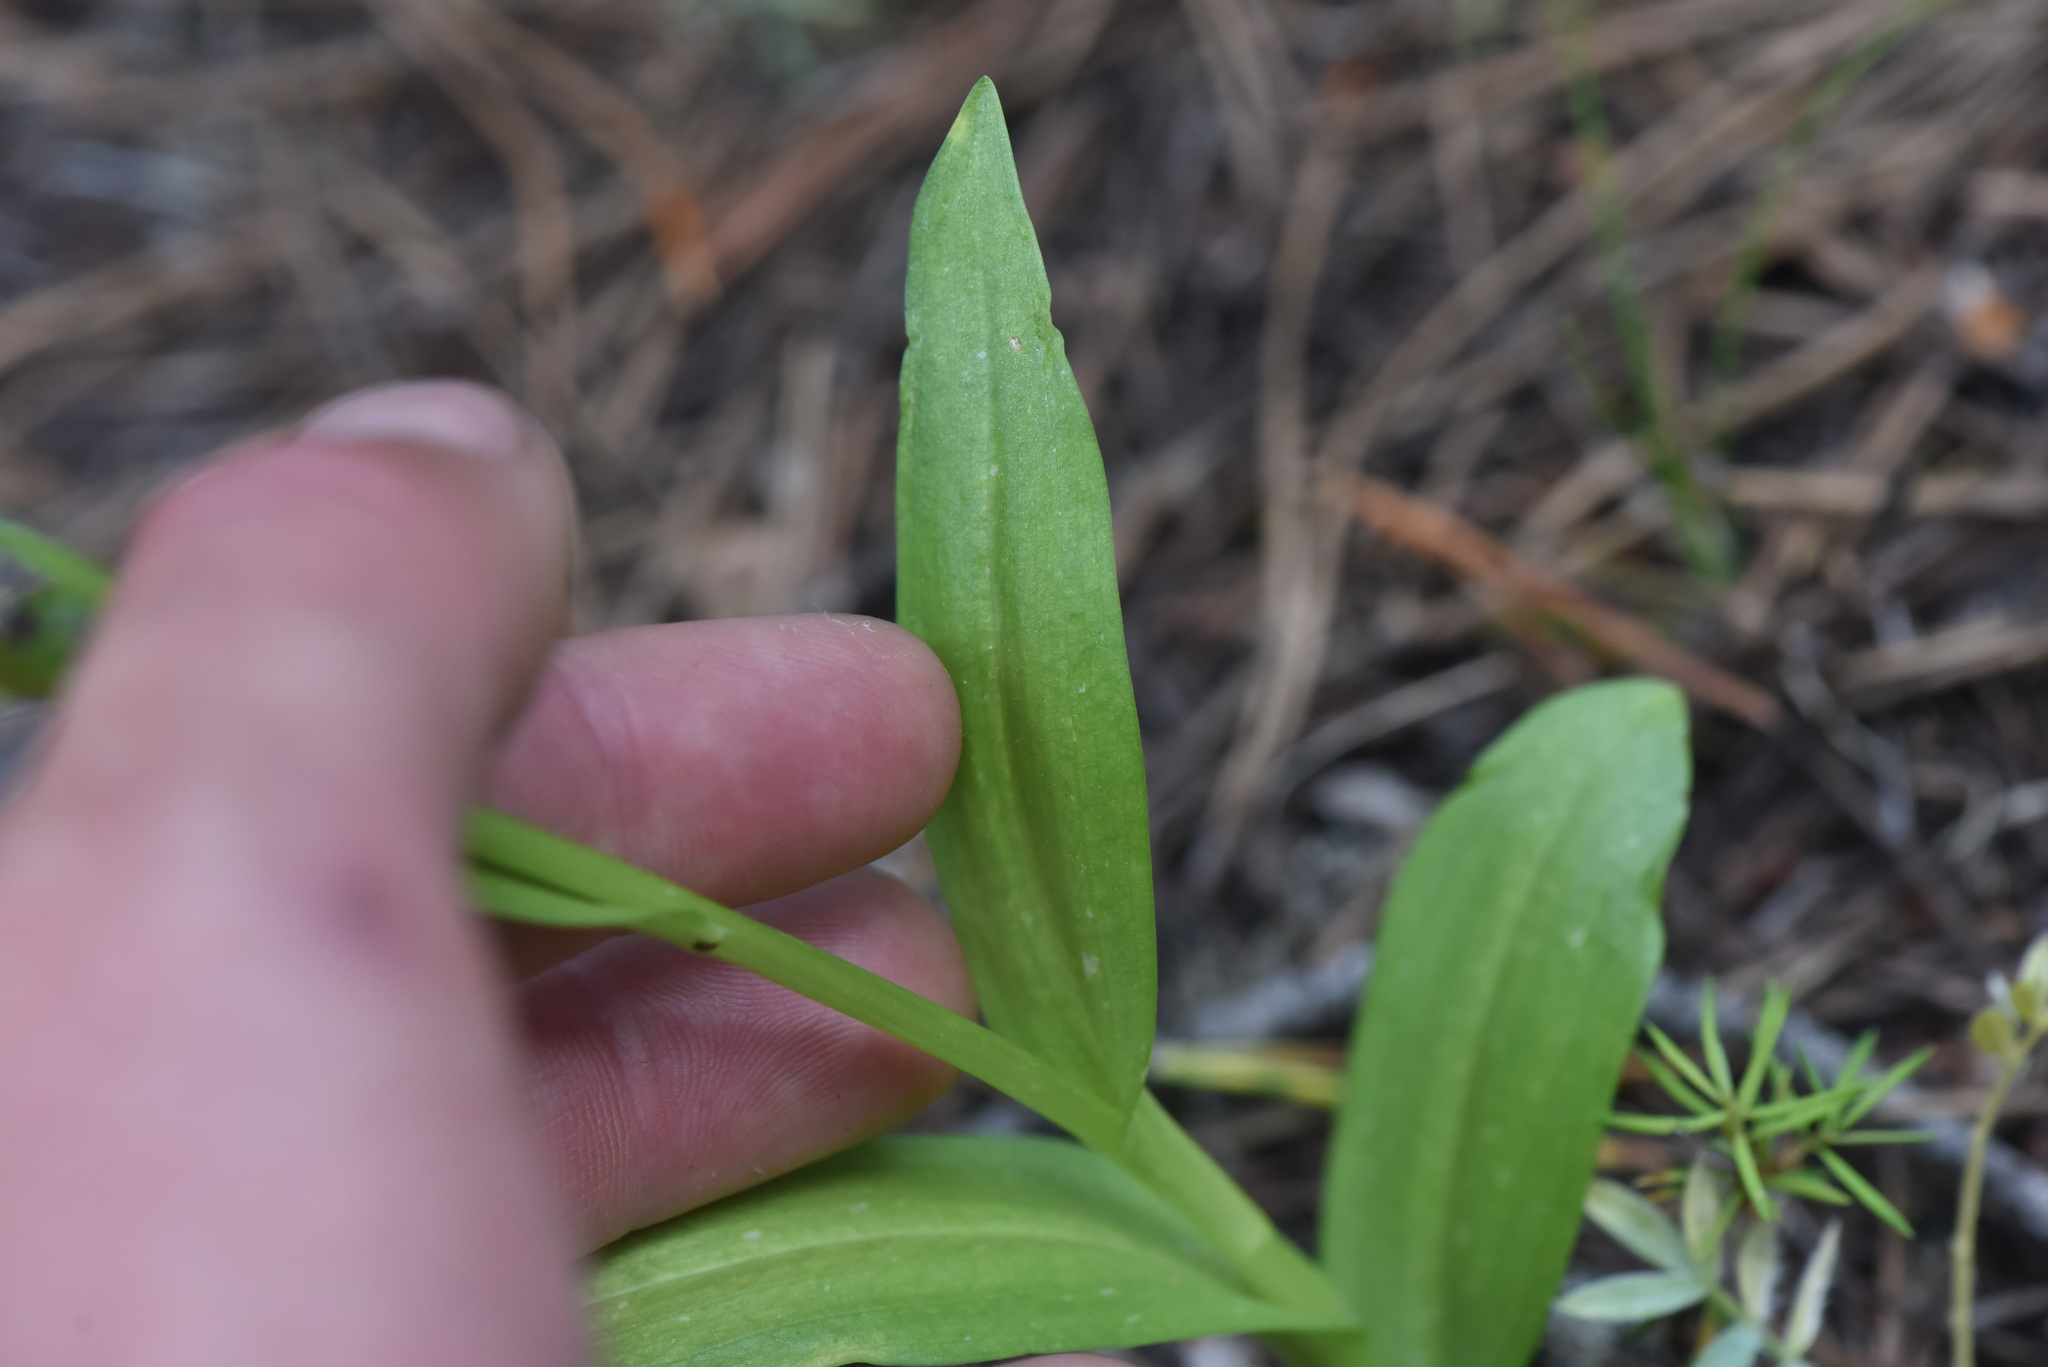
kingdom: Plantae
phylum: Tracheophyta
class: Liliopsida
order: Asparagales
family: Orchidaceae
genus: Dactylorhiza
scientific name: Dactylorhiza viridis
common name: Longbract frog orchid
